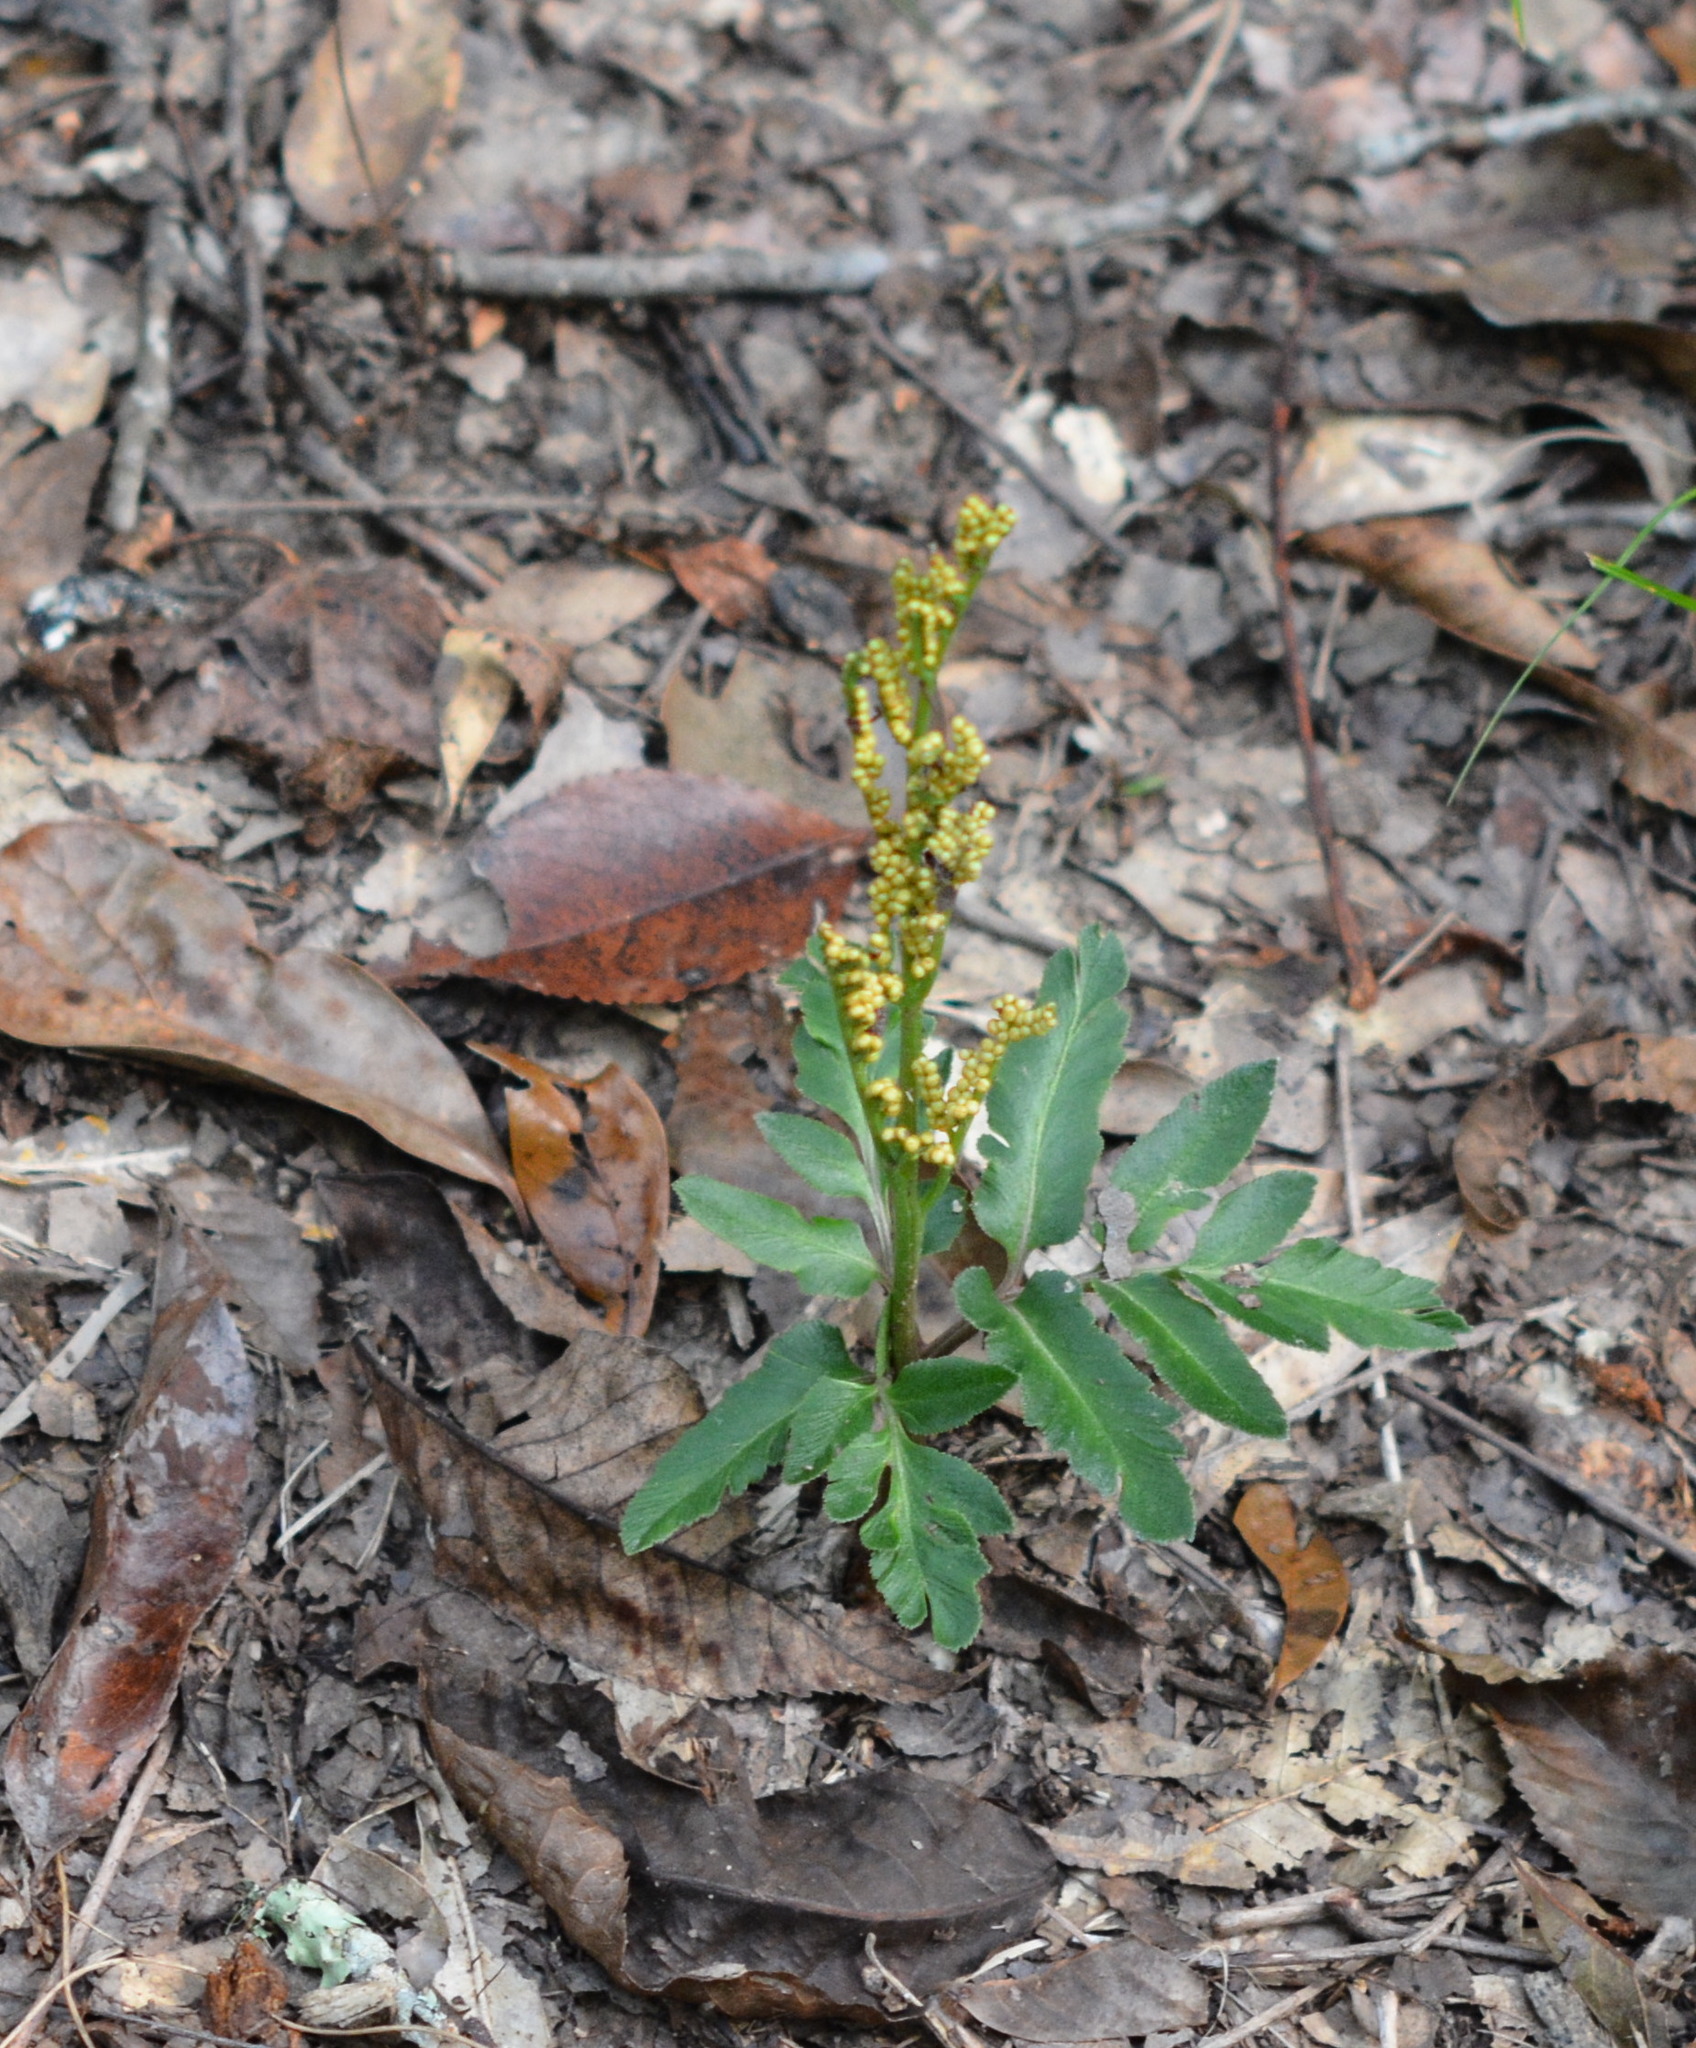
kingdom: Plantae
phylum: Tracheophyta
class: Polypodiopsida
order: Ophioglossales
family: Ophioglossaceae
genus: Sceptridium
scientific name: Sceptridium biternatum
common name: Sparse-lobed grapefern
